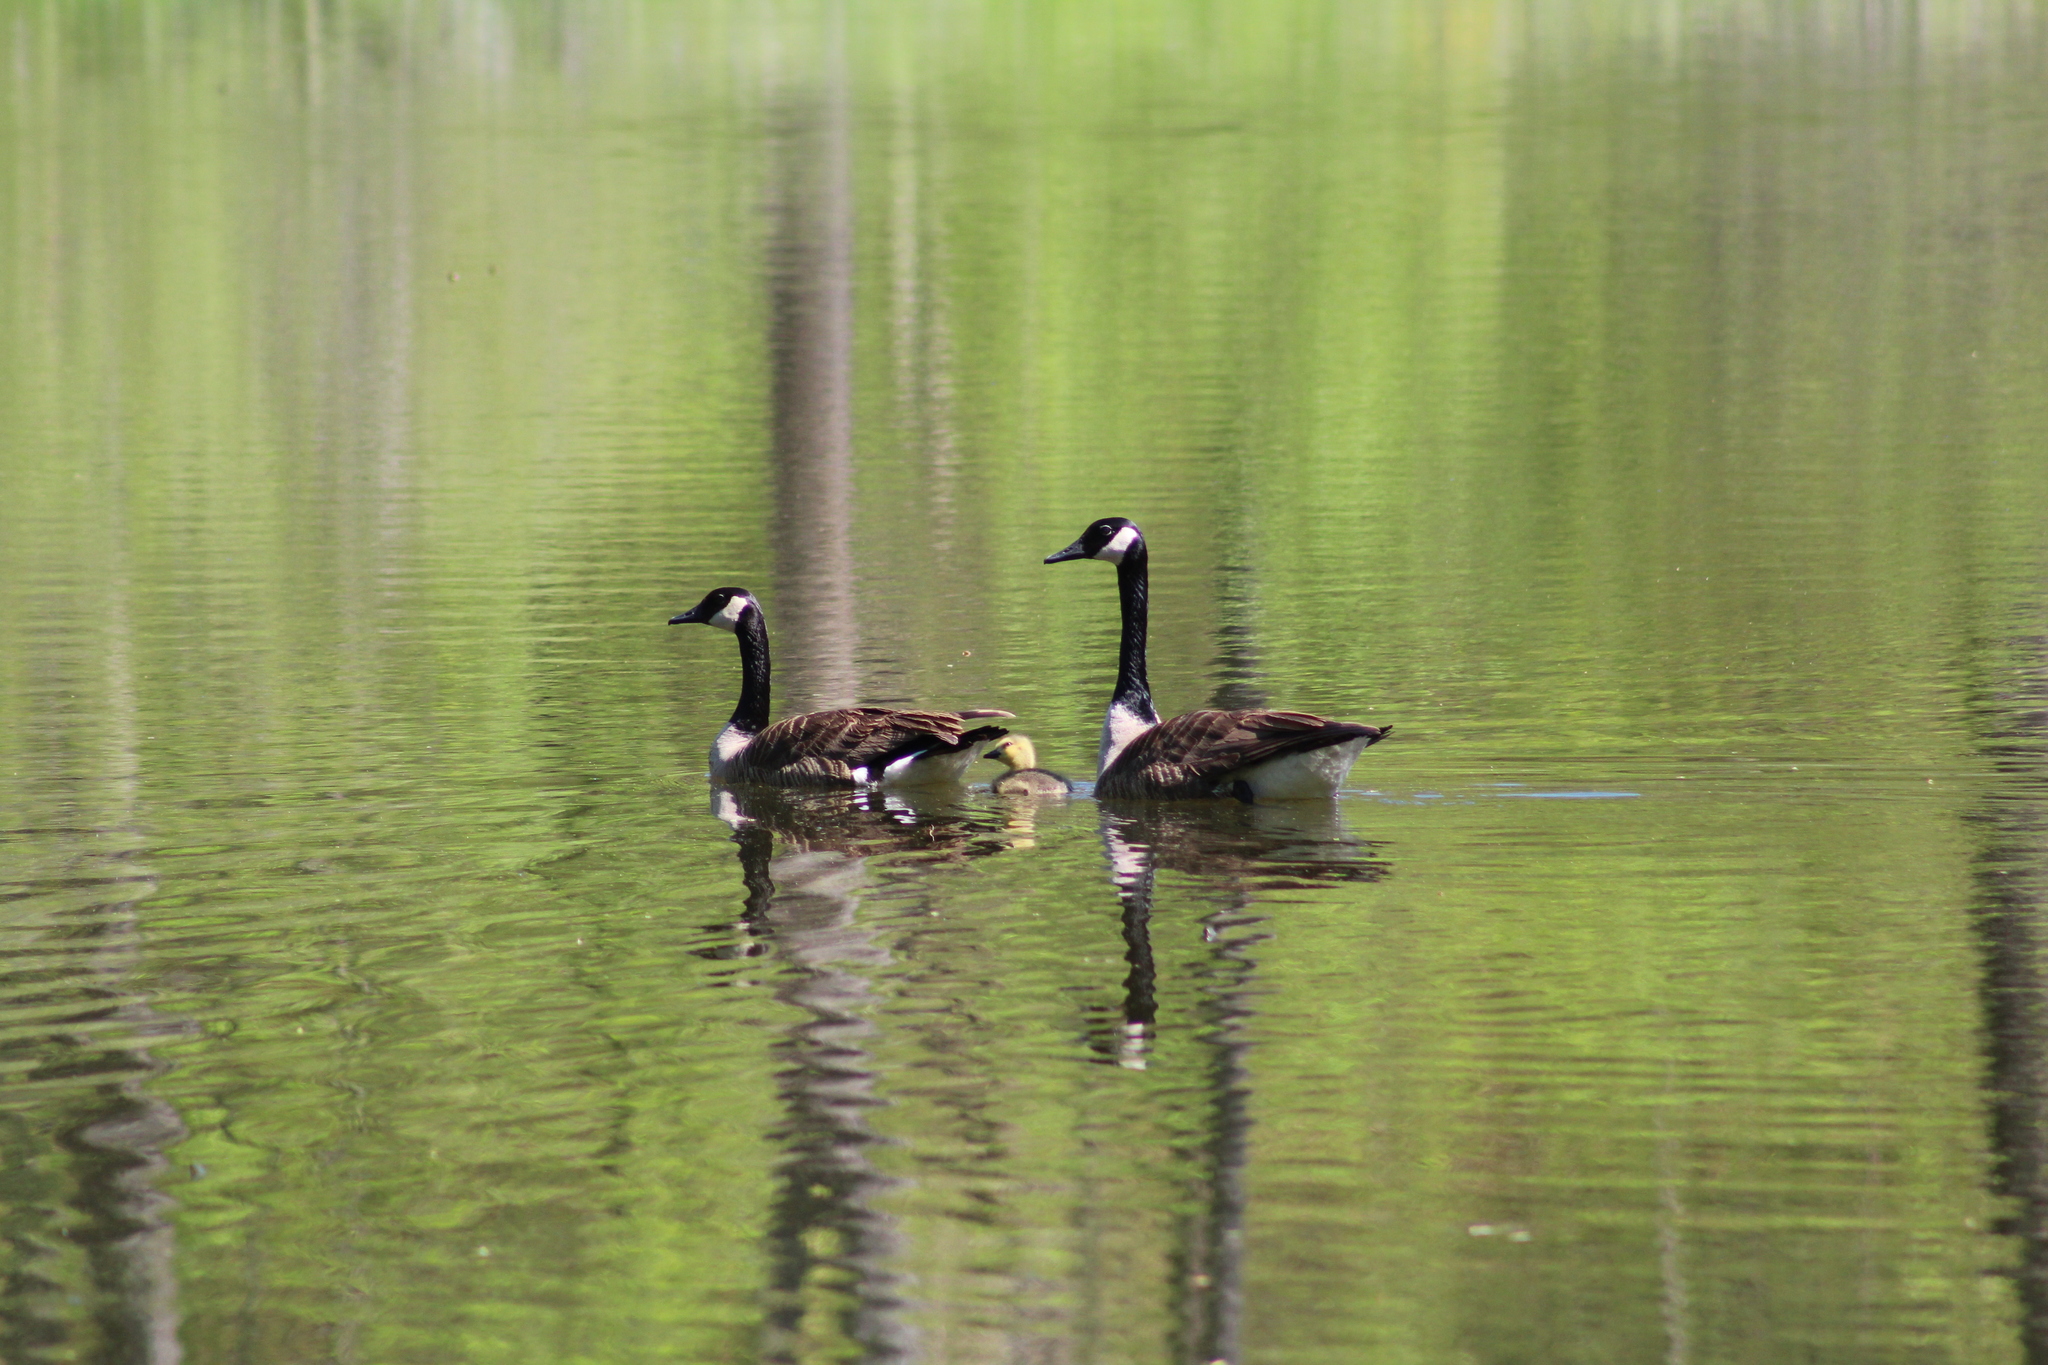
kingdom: Animalia
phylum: Chordata
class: Aves
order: Anseriformes
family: Anatidae
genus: Branta
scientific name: Branta canadensis
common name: Canada goose
